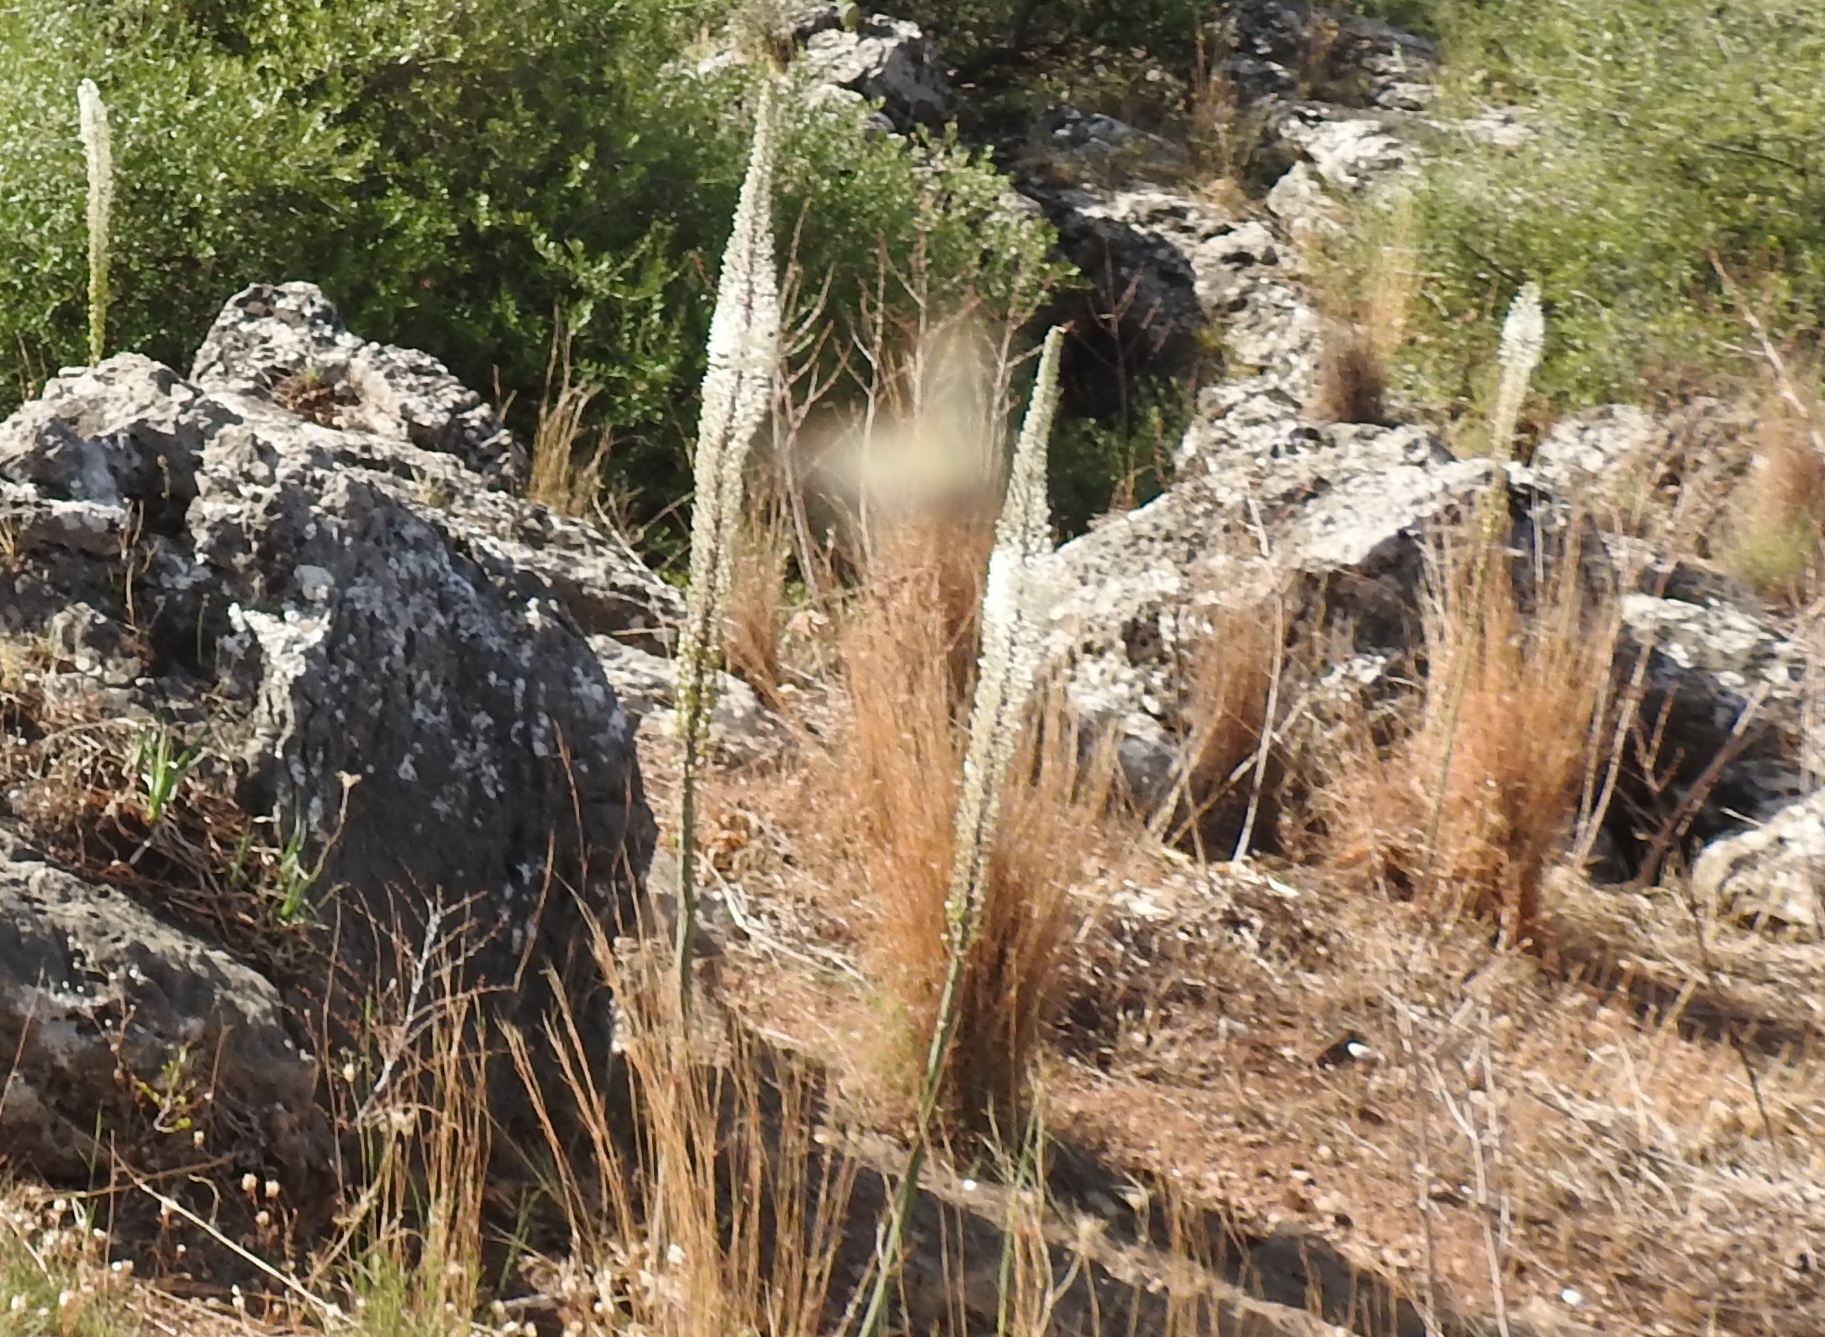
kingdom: Plantae
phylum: Tracheophyta
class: Liliopsida
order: Asparagales
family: Asparagaceae
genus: Drimia
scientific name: Drimia numidica
